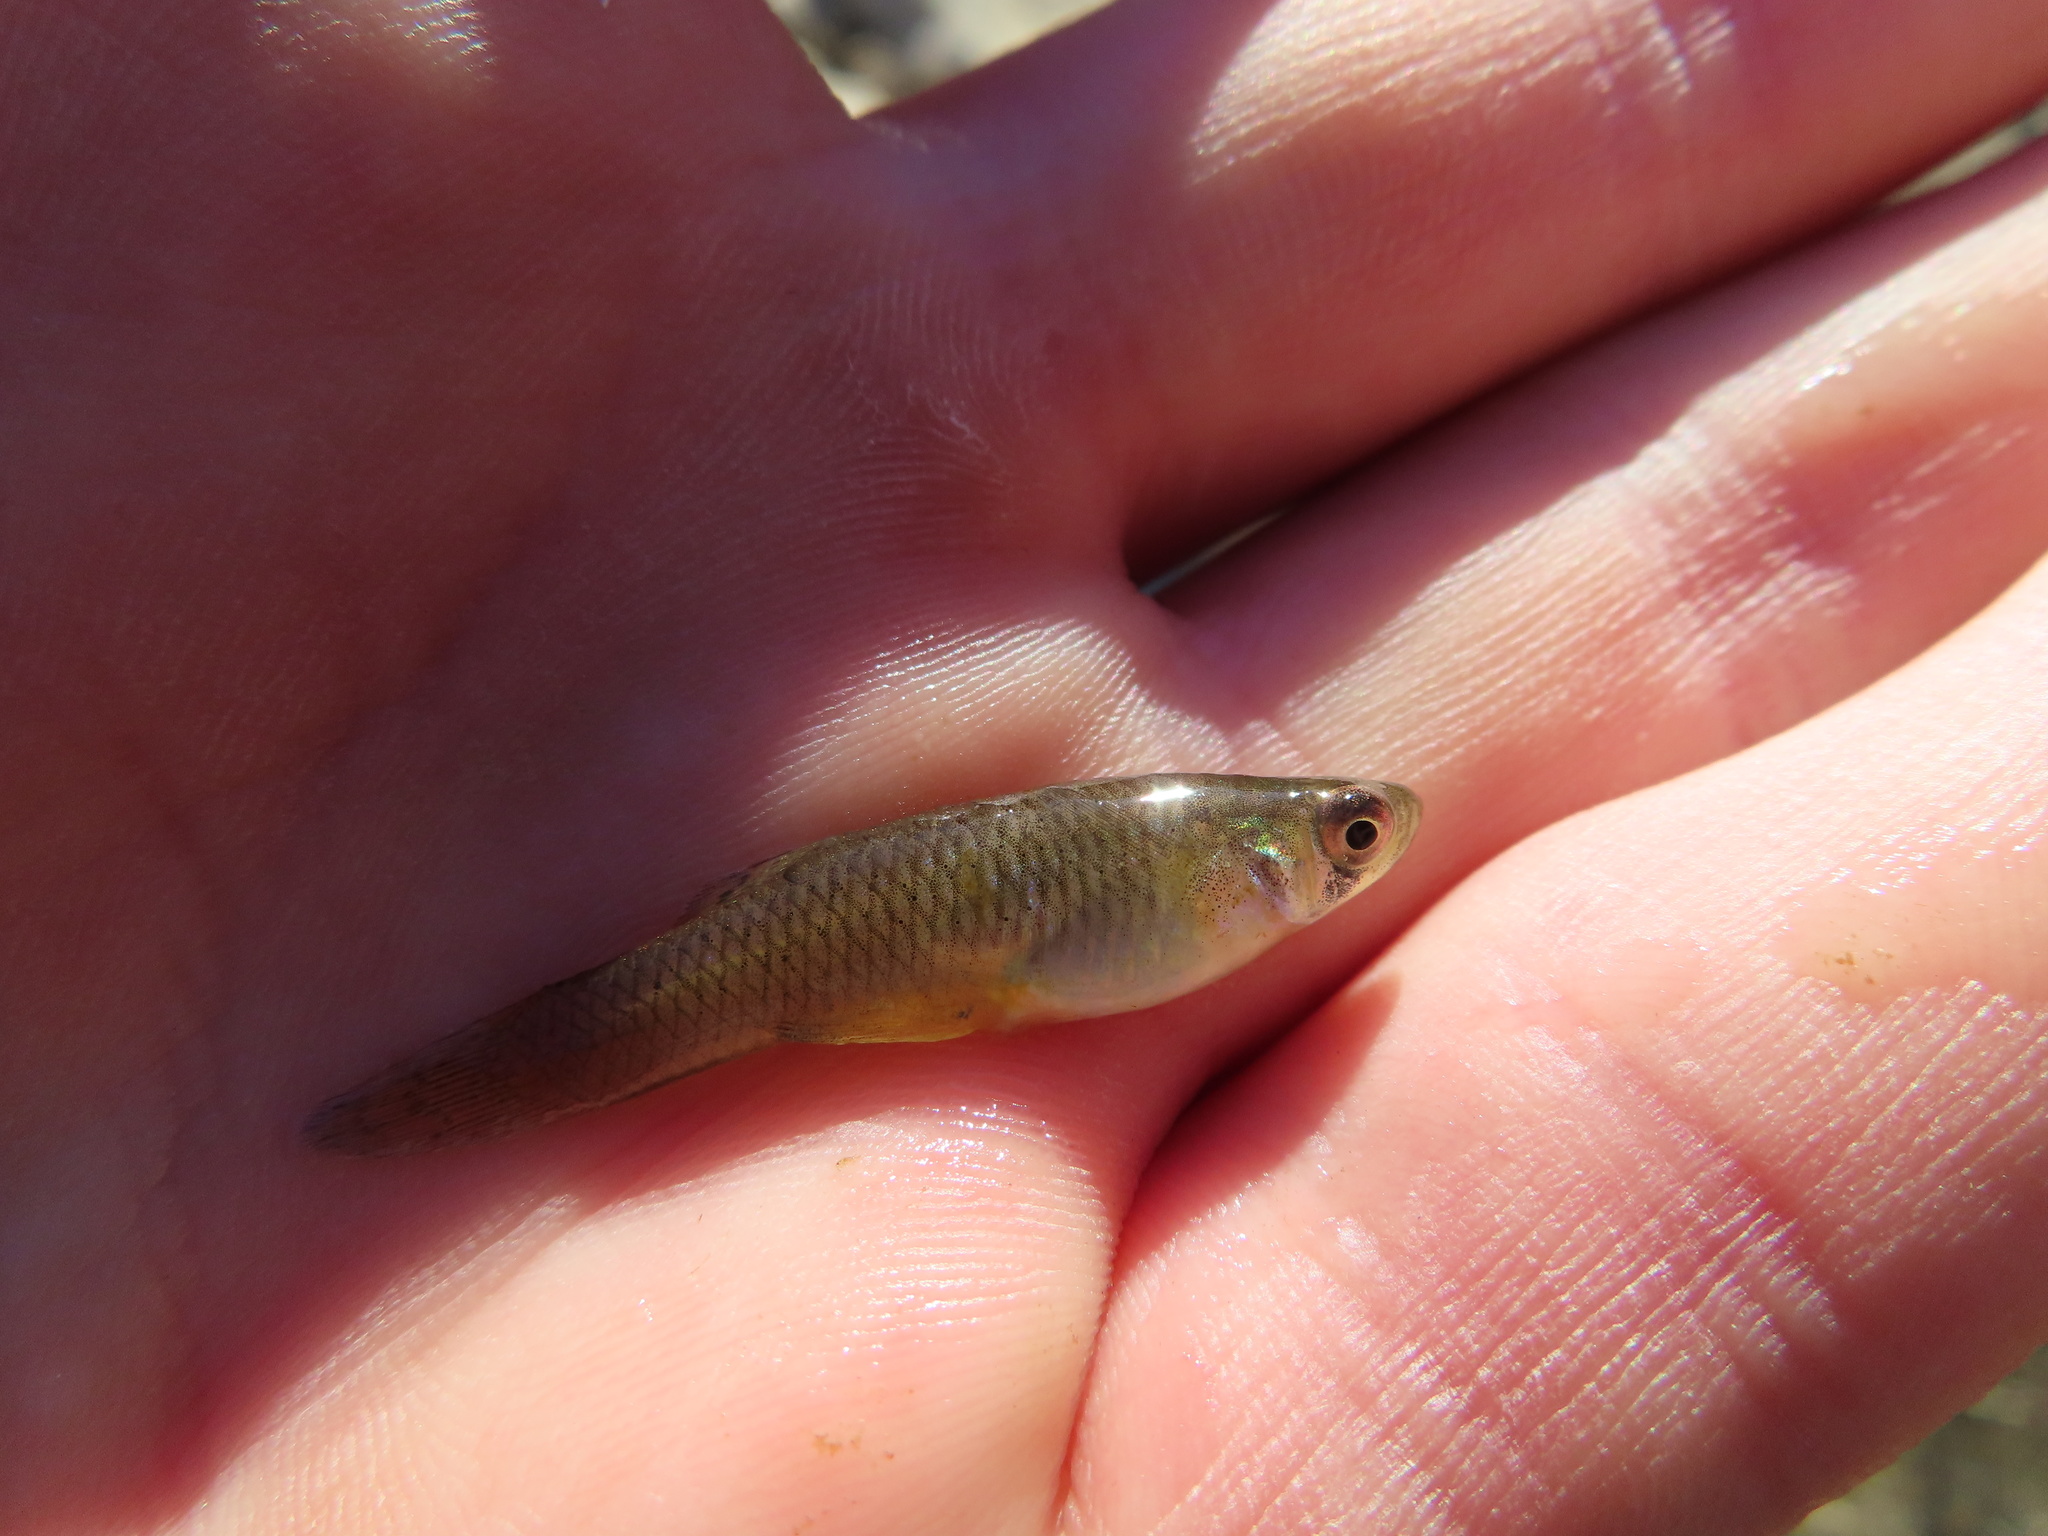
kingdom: Animalia
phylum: Chordata
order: Cyprinodontiformes
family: Poeciliidae
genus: Gambusia
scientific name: Gambusia affinis
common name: Mosquitofish
